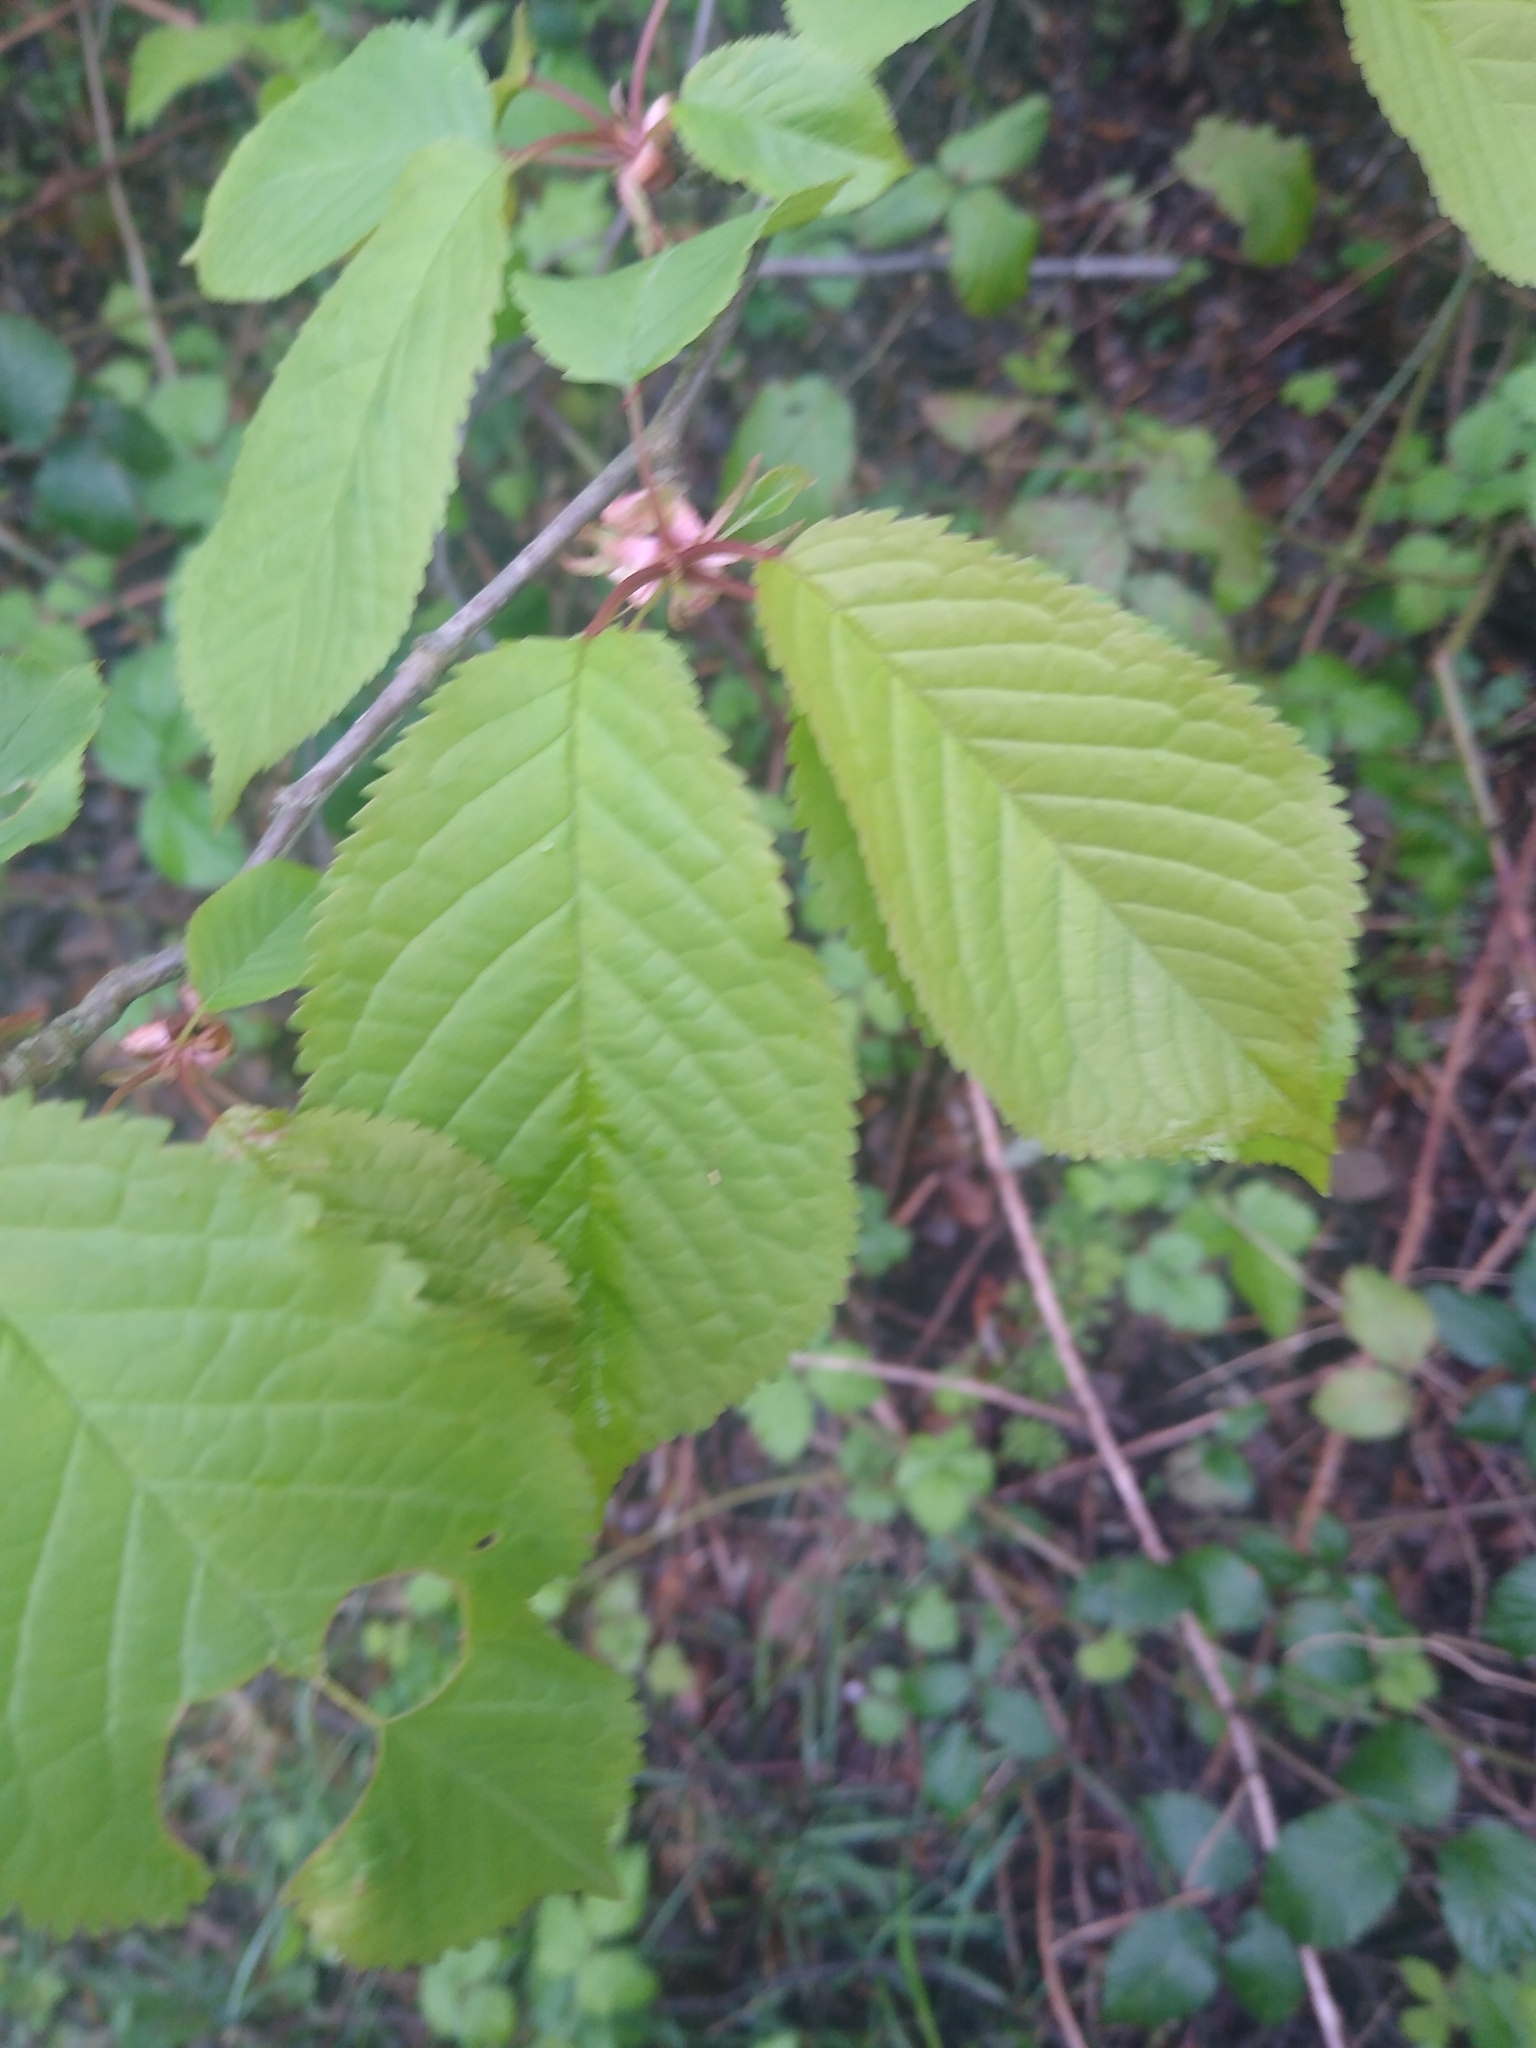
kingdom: Plantae
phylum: Tracheophyta
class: Magnoliopsida
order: Rosales
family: Rosaceae
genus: Prunus
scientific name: Prunus avium
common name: Sweet cherry
